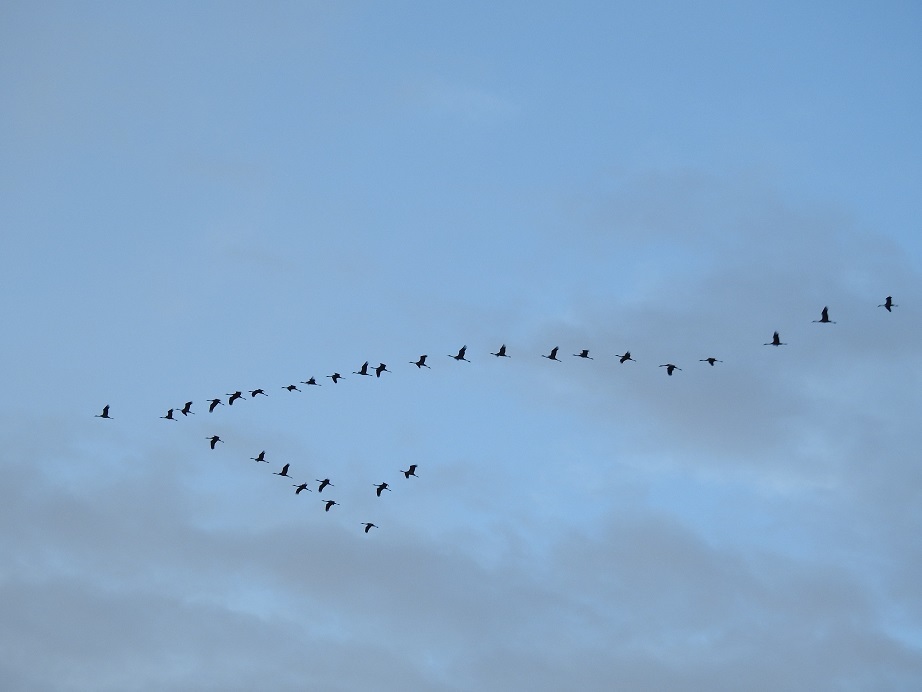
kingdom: Animalia
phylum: Chordata
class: Aves
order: Gruiformes
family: Gruidae
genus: Grus
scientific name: Grus grus
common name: Common crane
